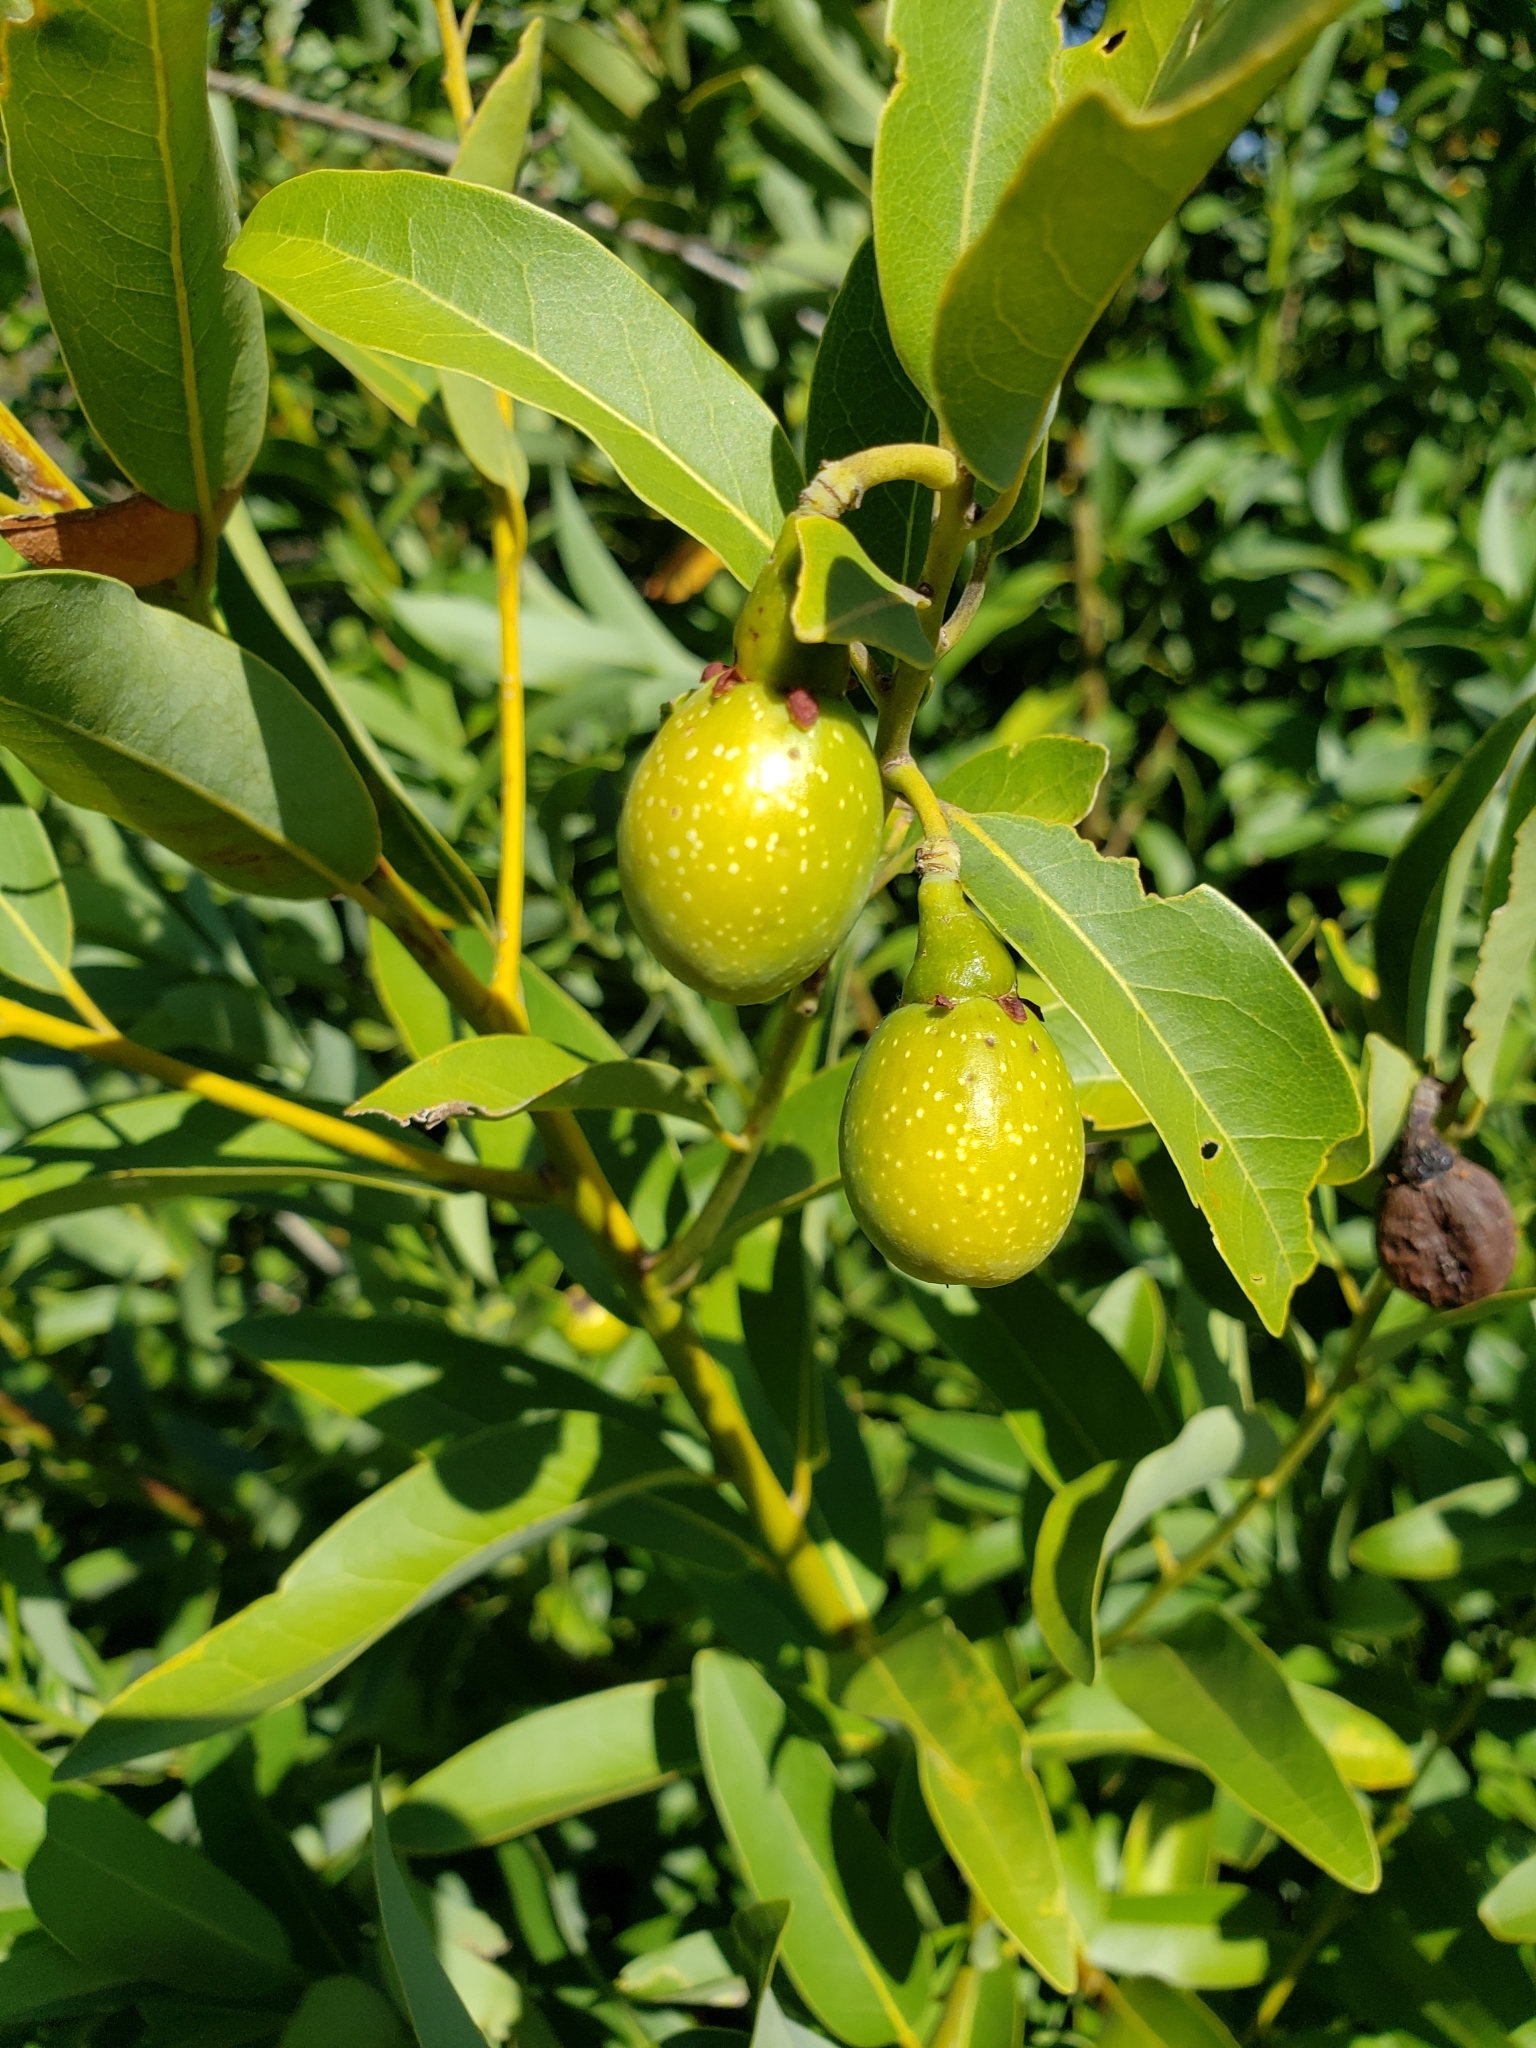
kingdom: Plantae
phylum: Tracheophyta
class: Magnoliopsida
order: Laurales
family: Lauraceae
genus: Umbellularia
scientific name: Umbellularia californica
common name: California bay
